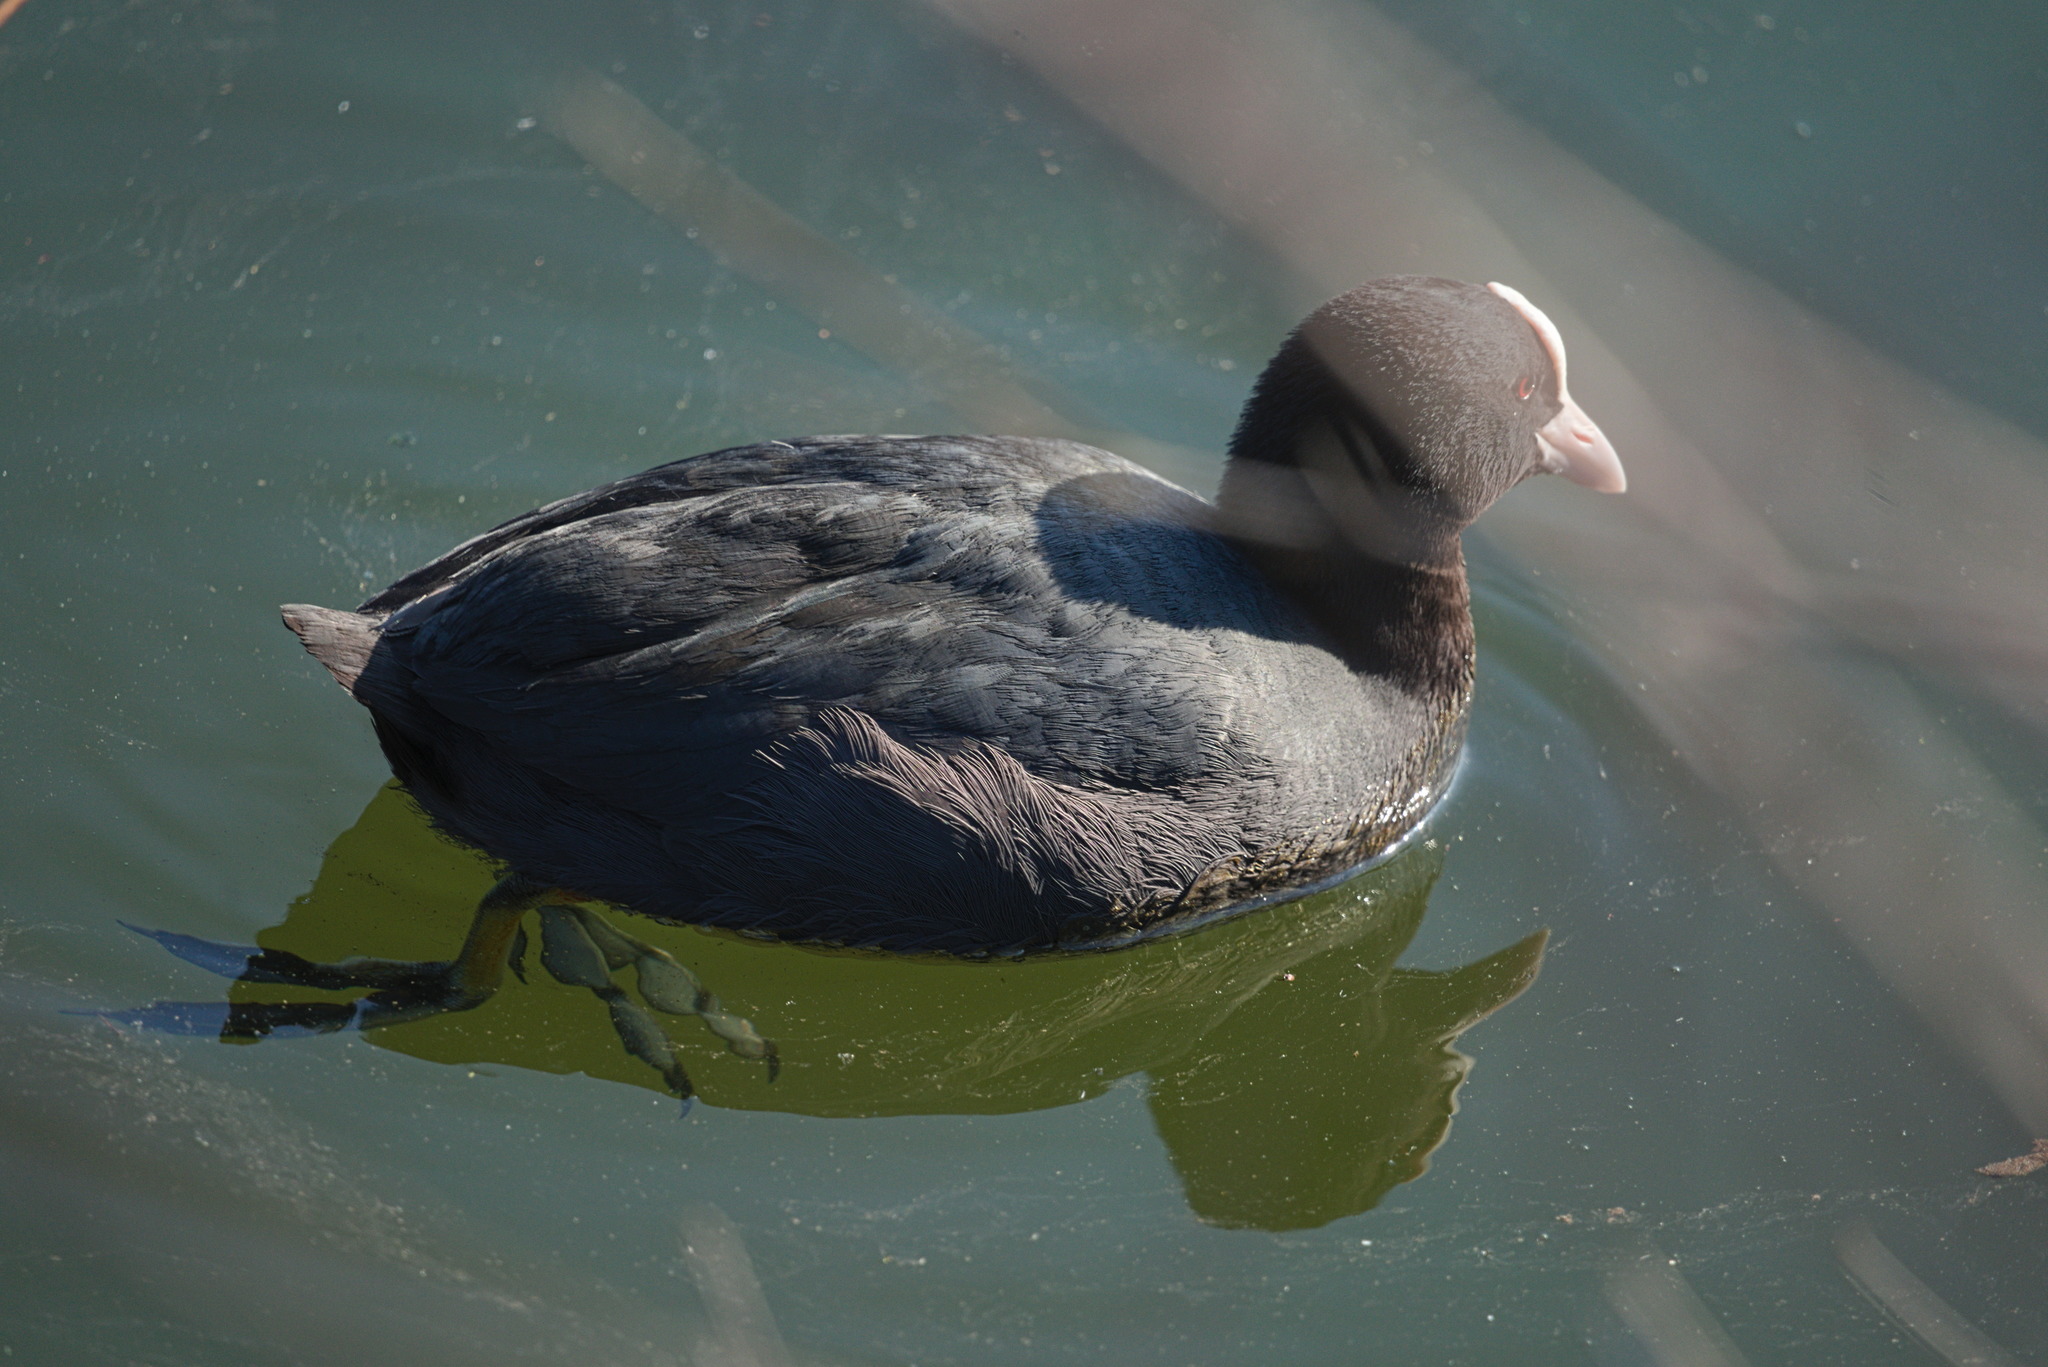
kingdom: Animalia
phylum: Chordata
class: Aves
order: Gruiformes
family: Rallidae
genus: Fulica
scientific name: Fulica atra
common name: Eurasian coot
